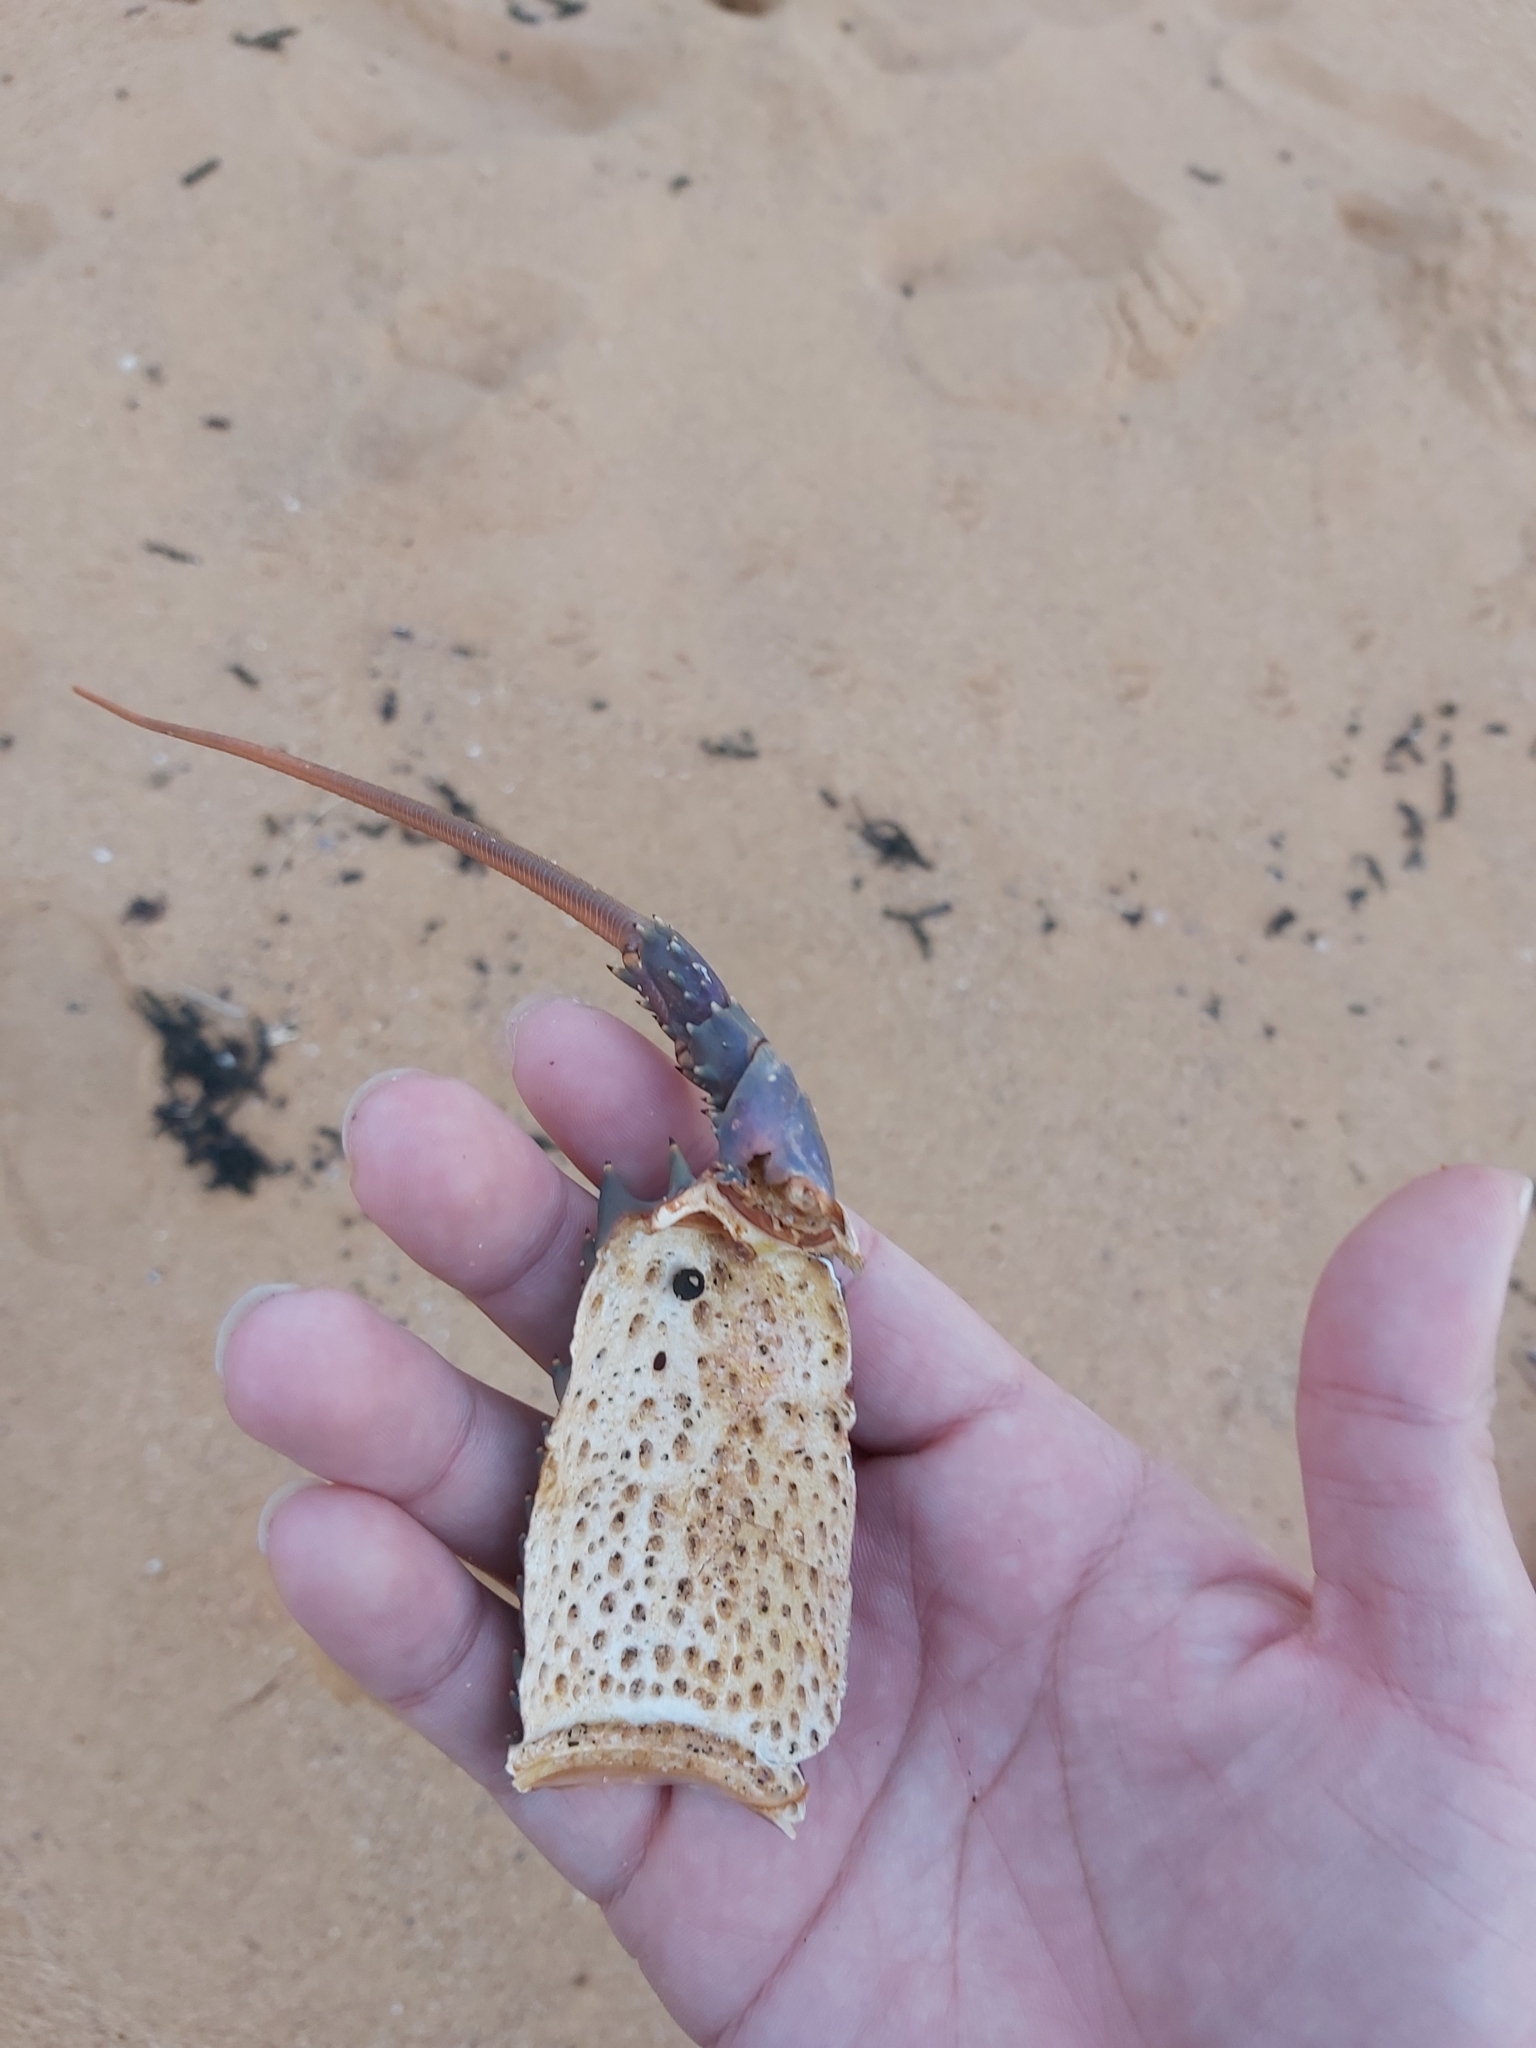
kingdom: Animalia
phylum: Arthropoda
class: Malacostraca
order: Decapoda
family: Palinuridae
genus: Sagmariasus
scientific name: Sagmariasus verreauxi
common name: Green rock lobster
